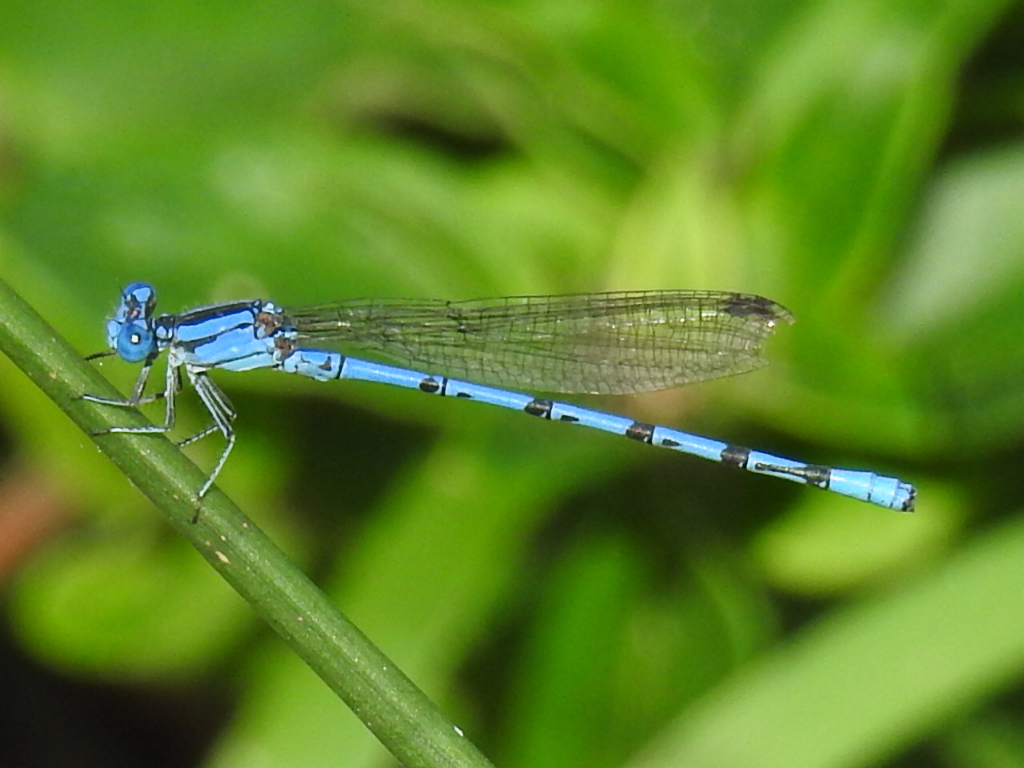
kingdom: Animalia
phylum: Arthropoda
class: Insecta
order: Odonata
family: Coenagrionidae
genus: Argia
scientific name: Argia funebris
